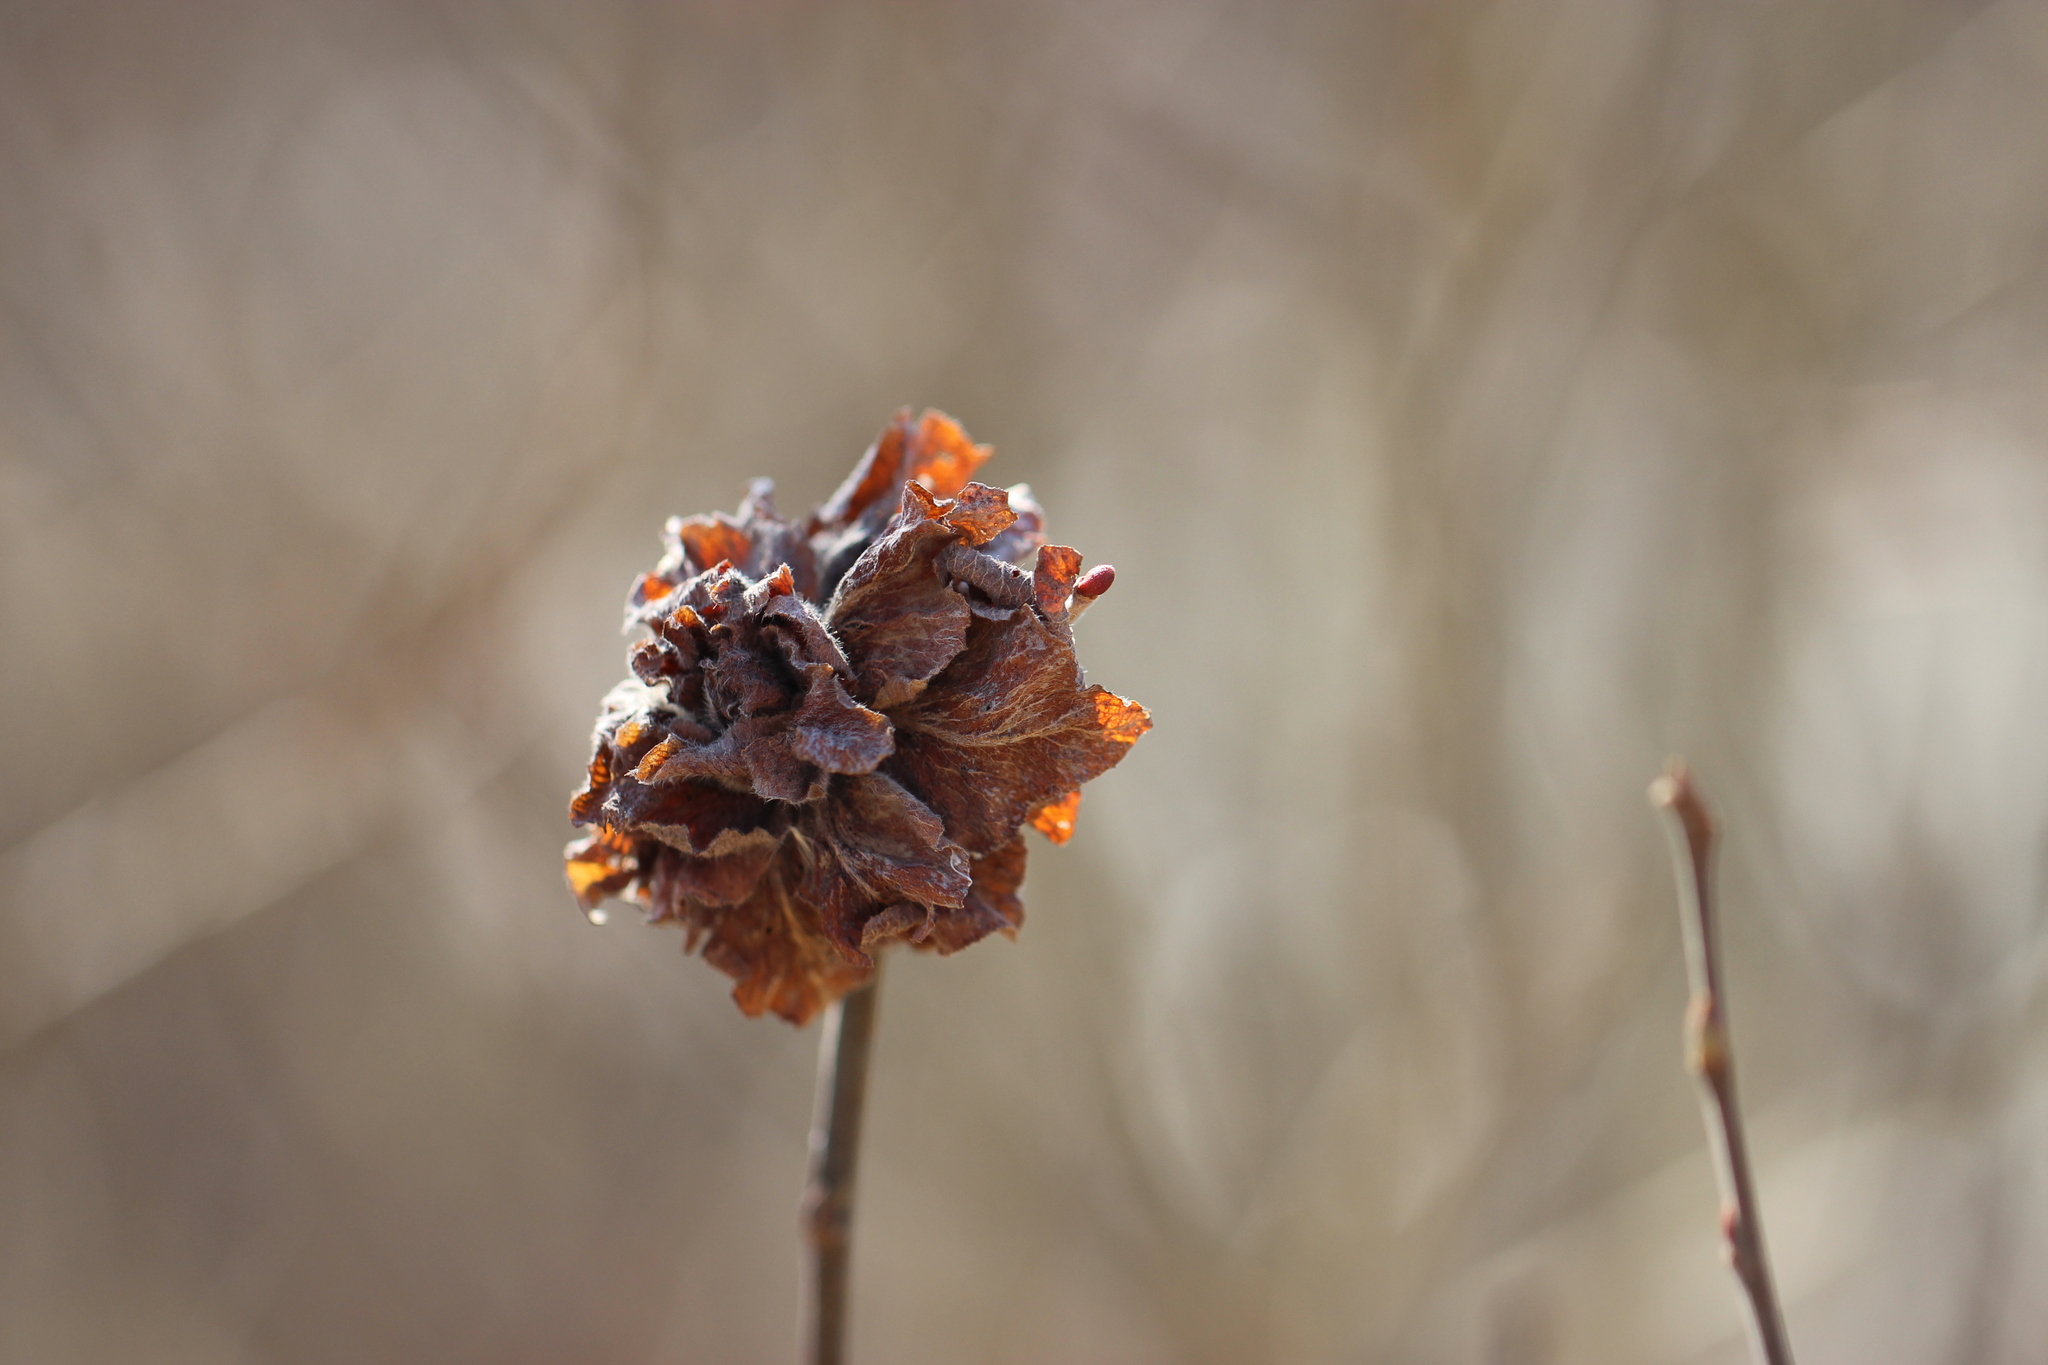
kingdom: Animalia
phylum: Arthropoda
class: Insecta
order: Diptera
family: Cecidomyiidae
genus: Rabdophaga
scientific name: Rabdophaga rosaria
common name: Willow rose gall midge
